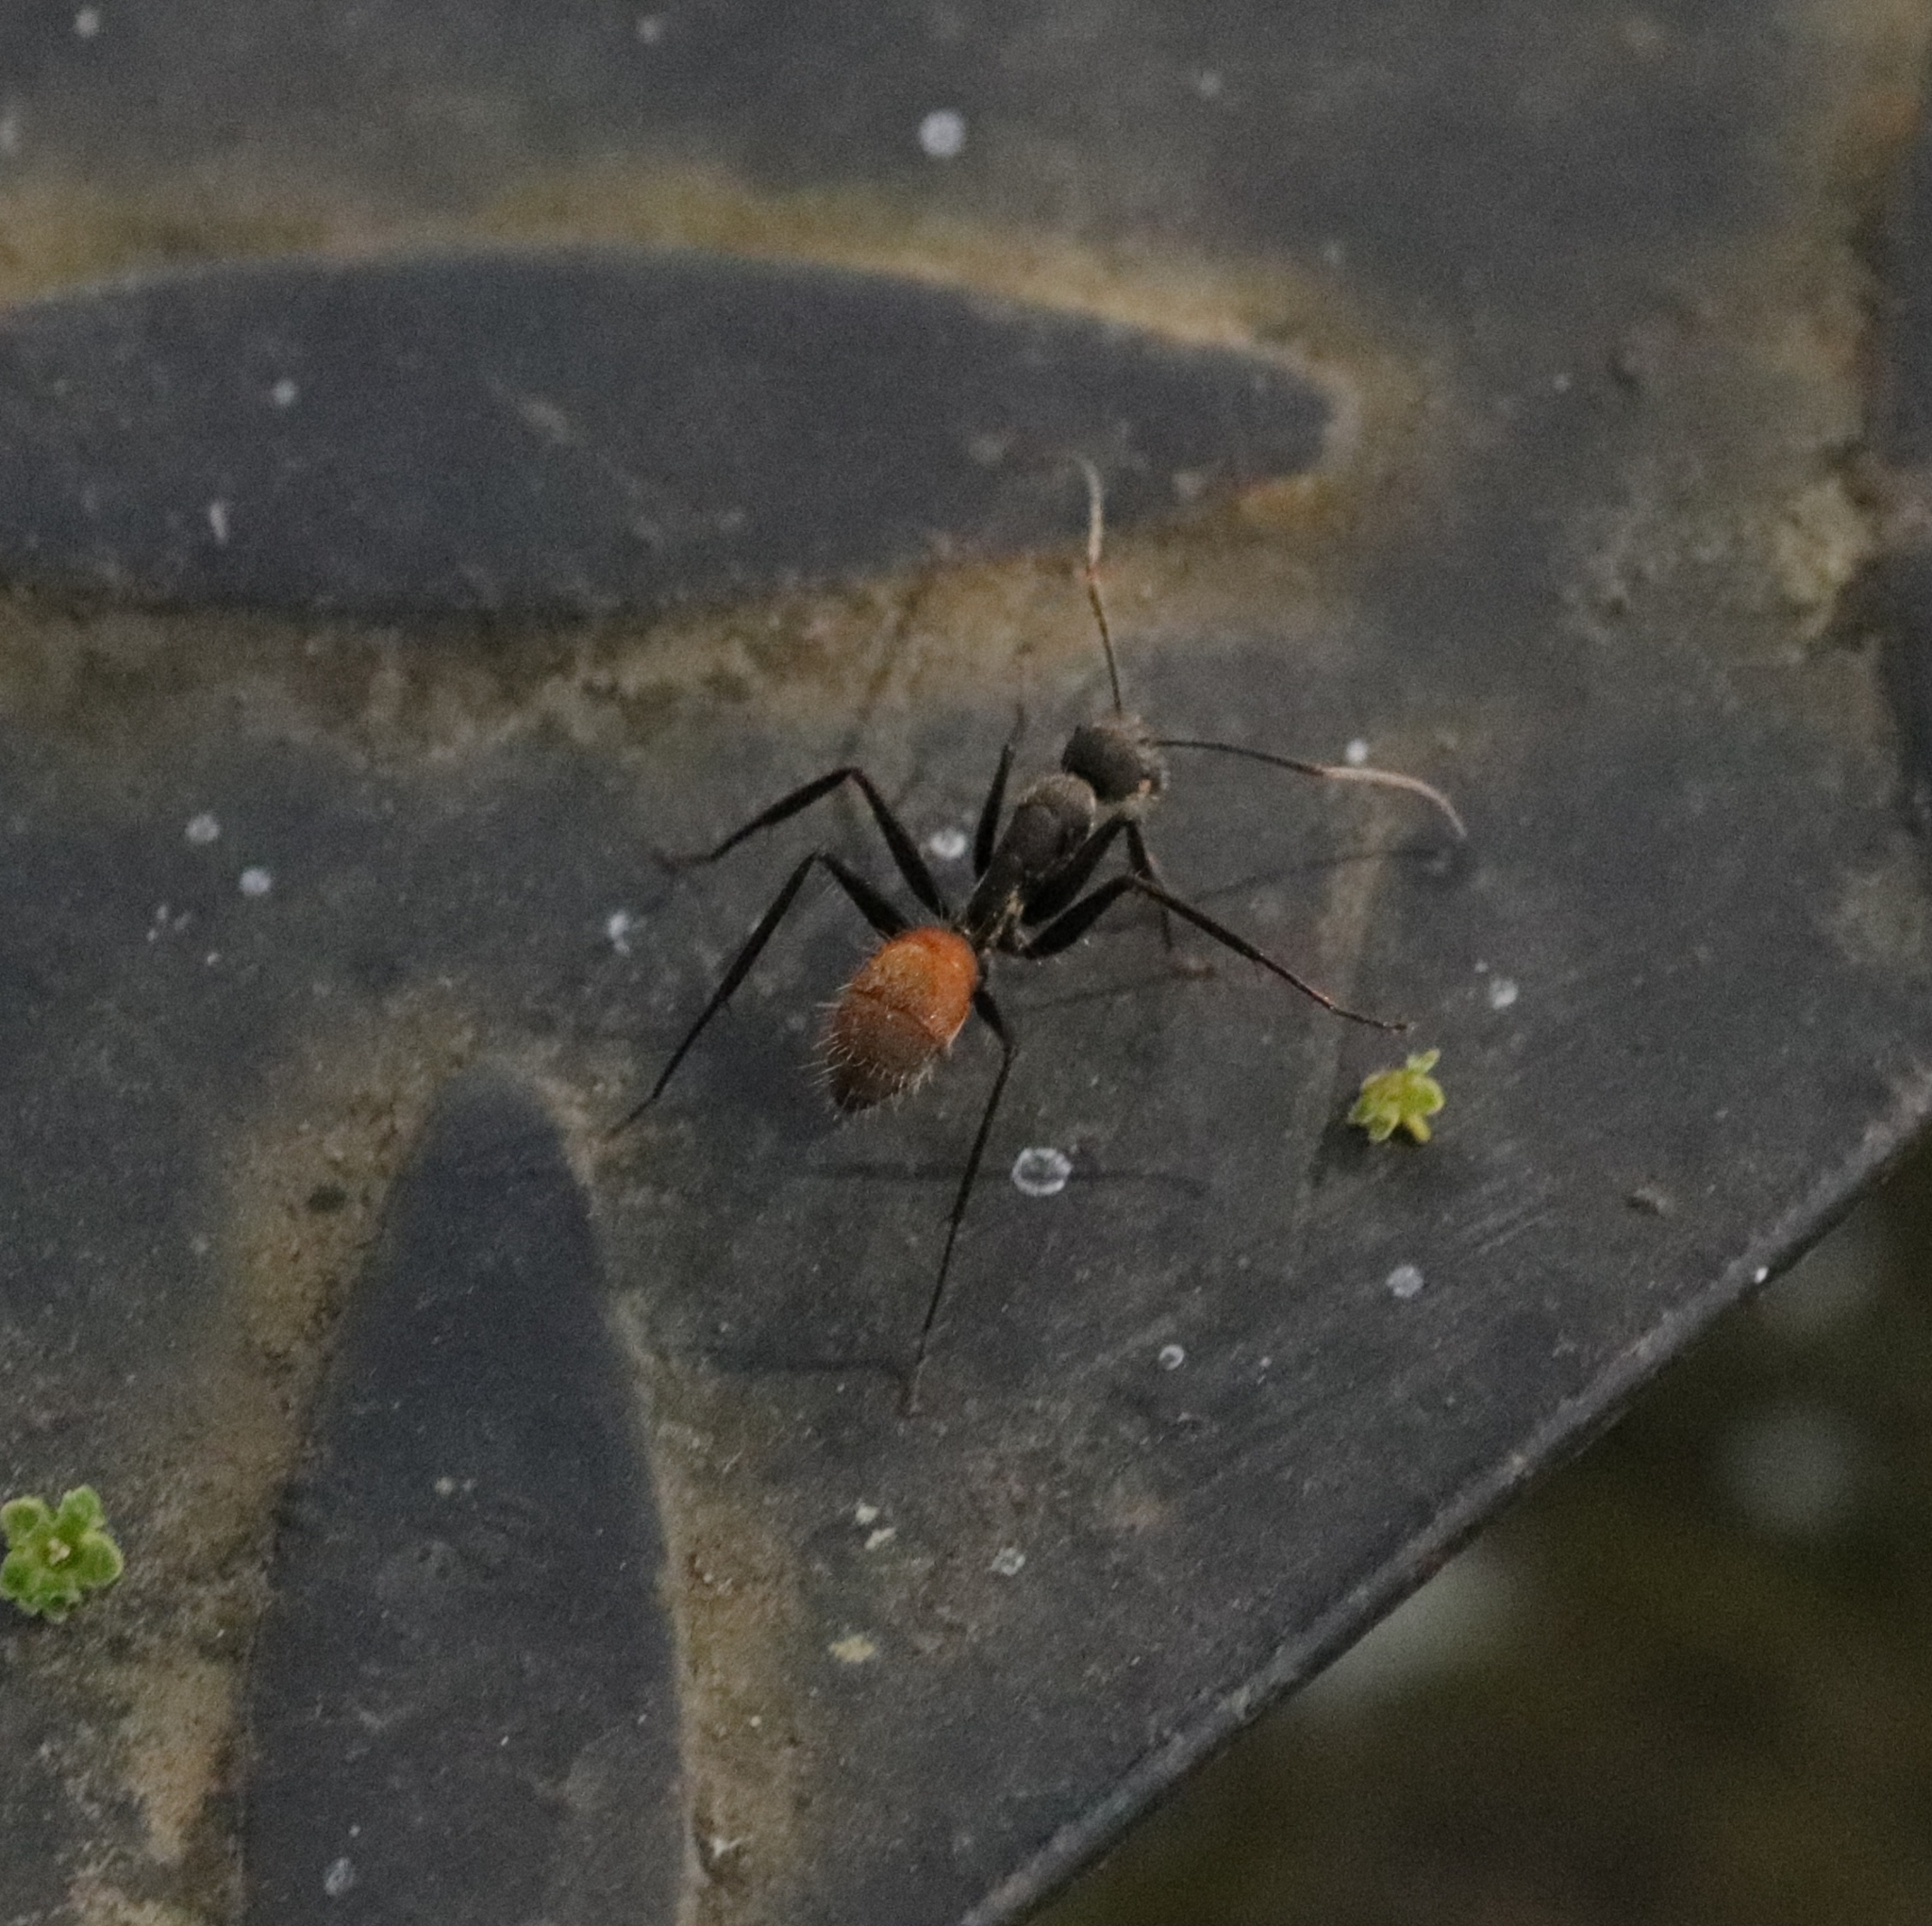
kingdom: Animalia
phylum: Arthropoda
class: Insecta
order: Hymenoptera
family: Formicidae
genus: Camponotus
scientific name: Camponotus rapax
